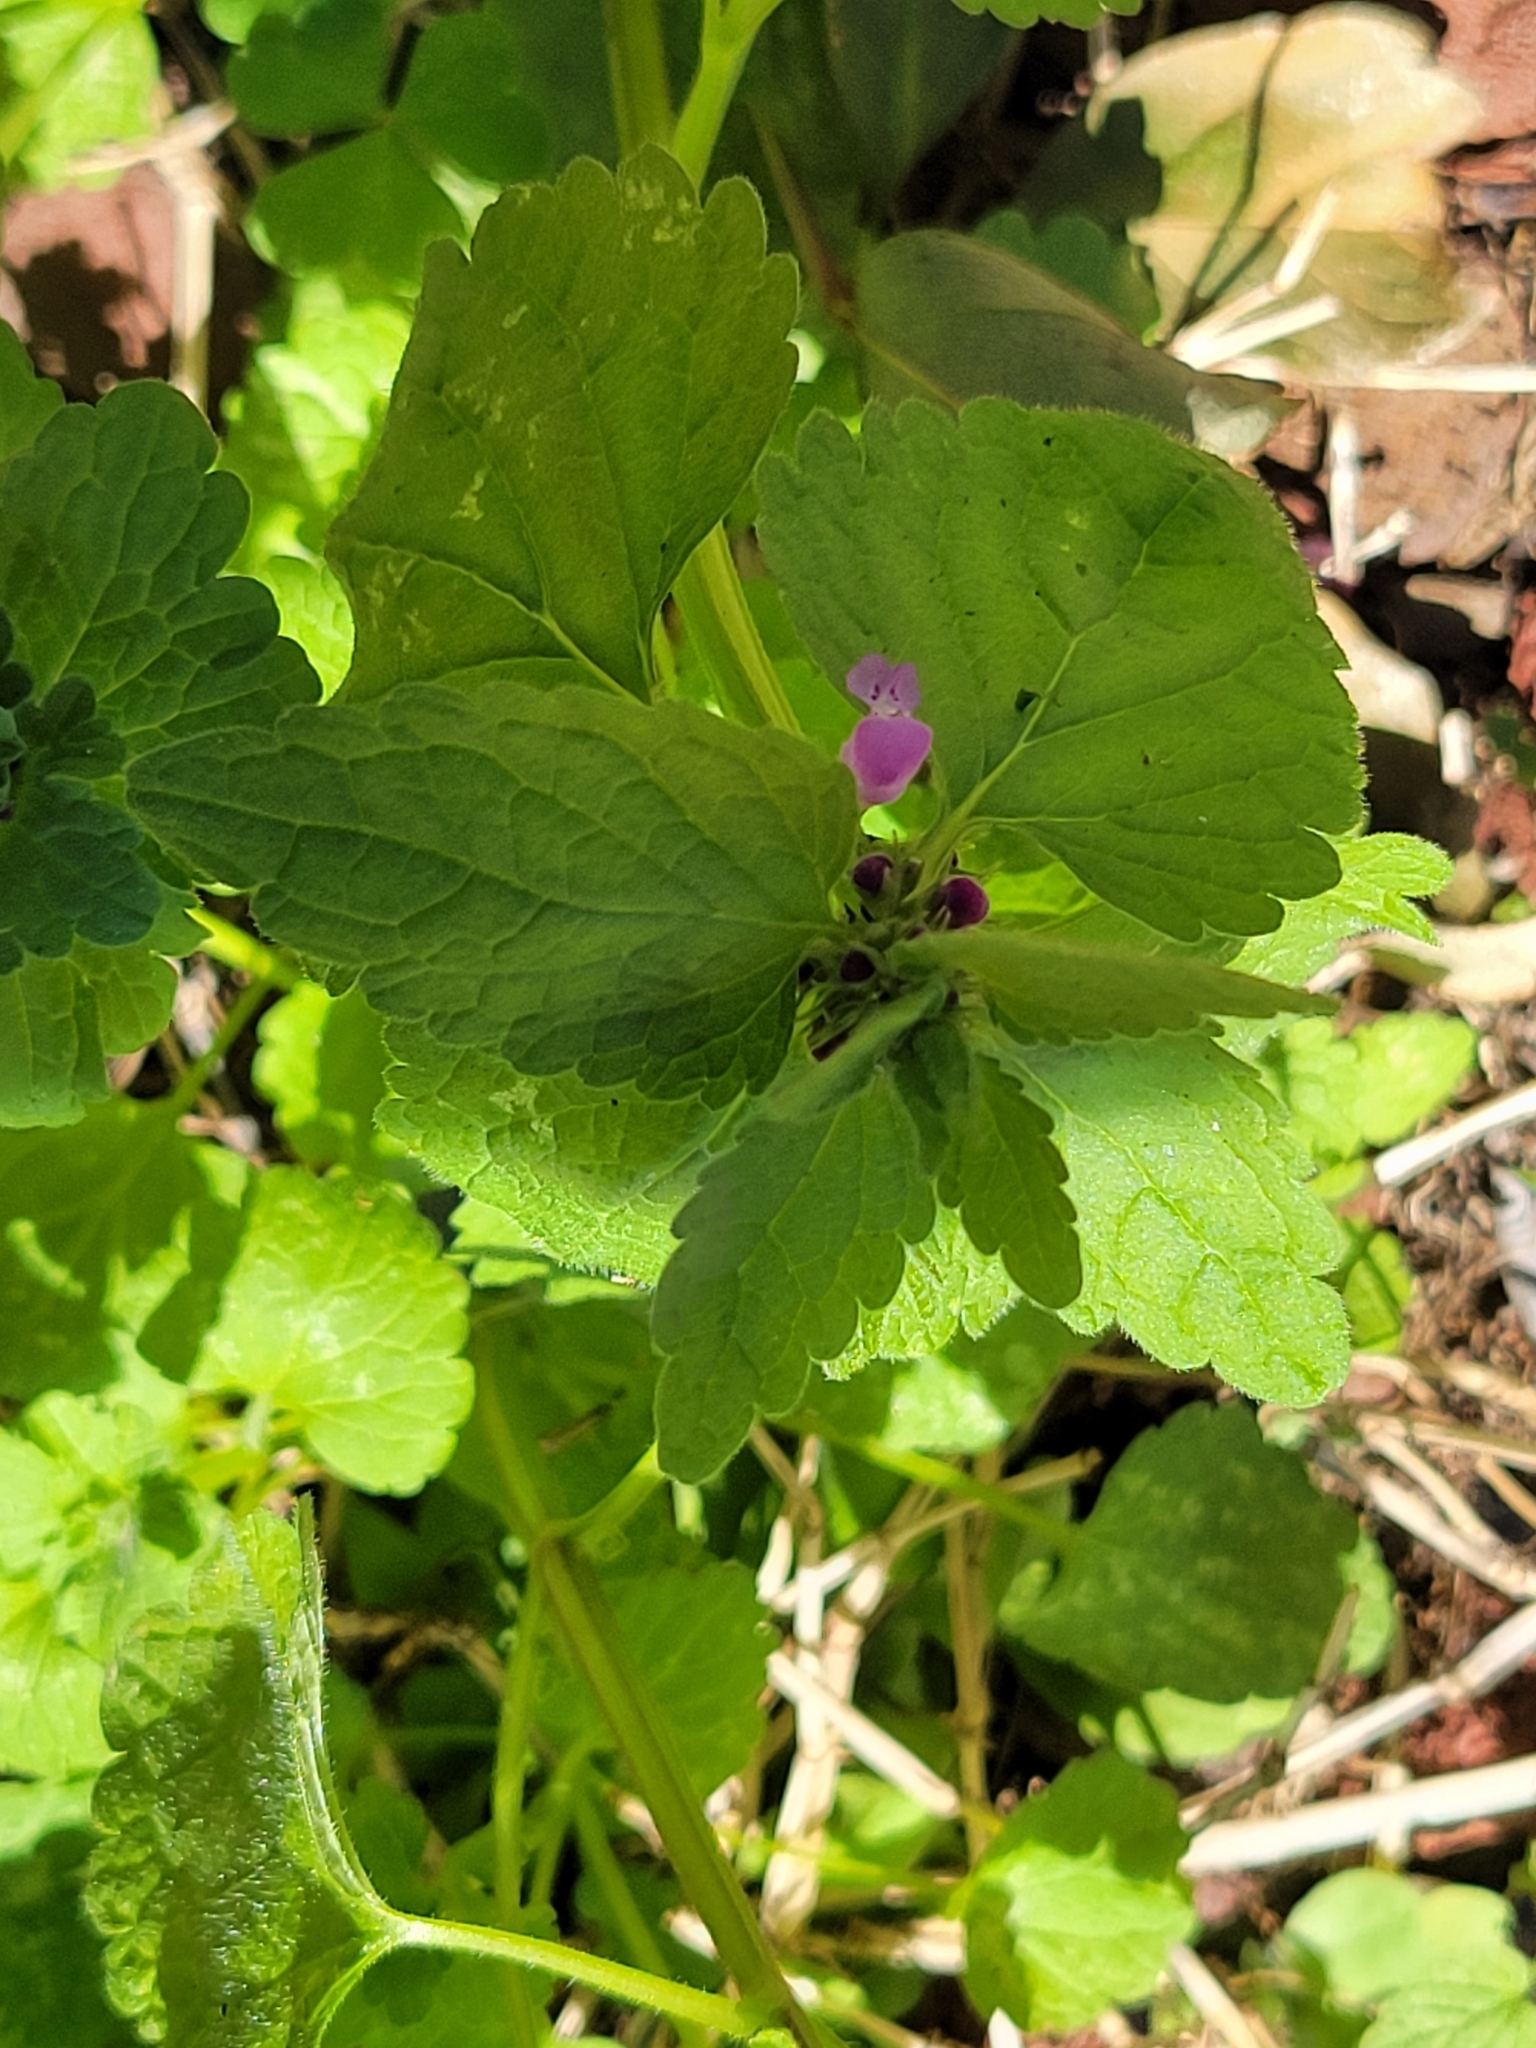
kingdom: Plantae
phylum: Tracheophyta
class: Magnoliopsida
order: Lamiales
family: Lamiaceae
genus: Lamium
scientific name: Lamium purpureum
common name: Red dead-nettle
